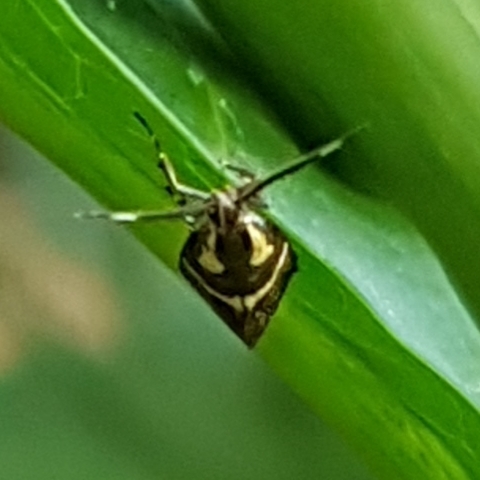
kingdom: Animalia
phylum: Arthropoda
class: Insecta
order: Lepidoptera
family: Oecophoridae
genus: Dafa
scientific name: Dafa oliviella
